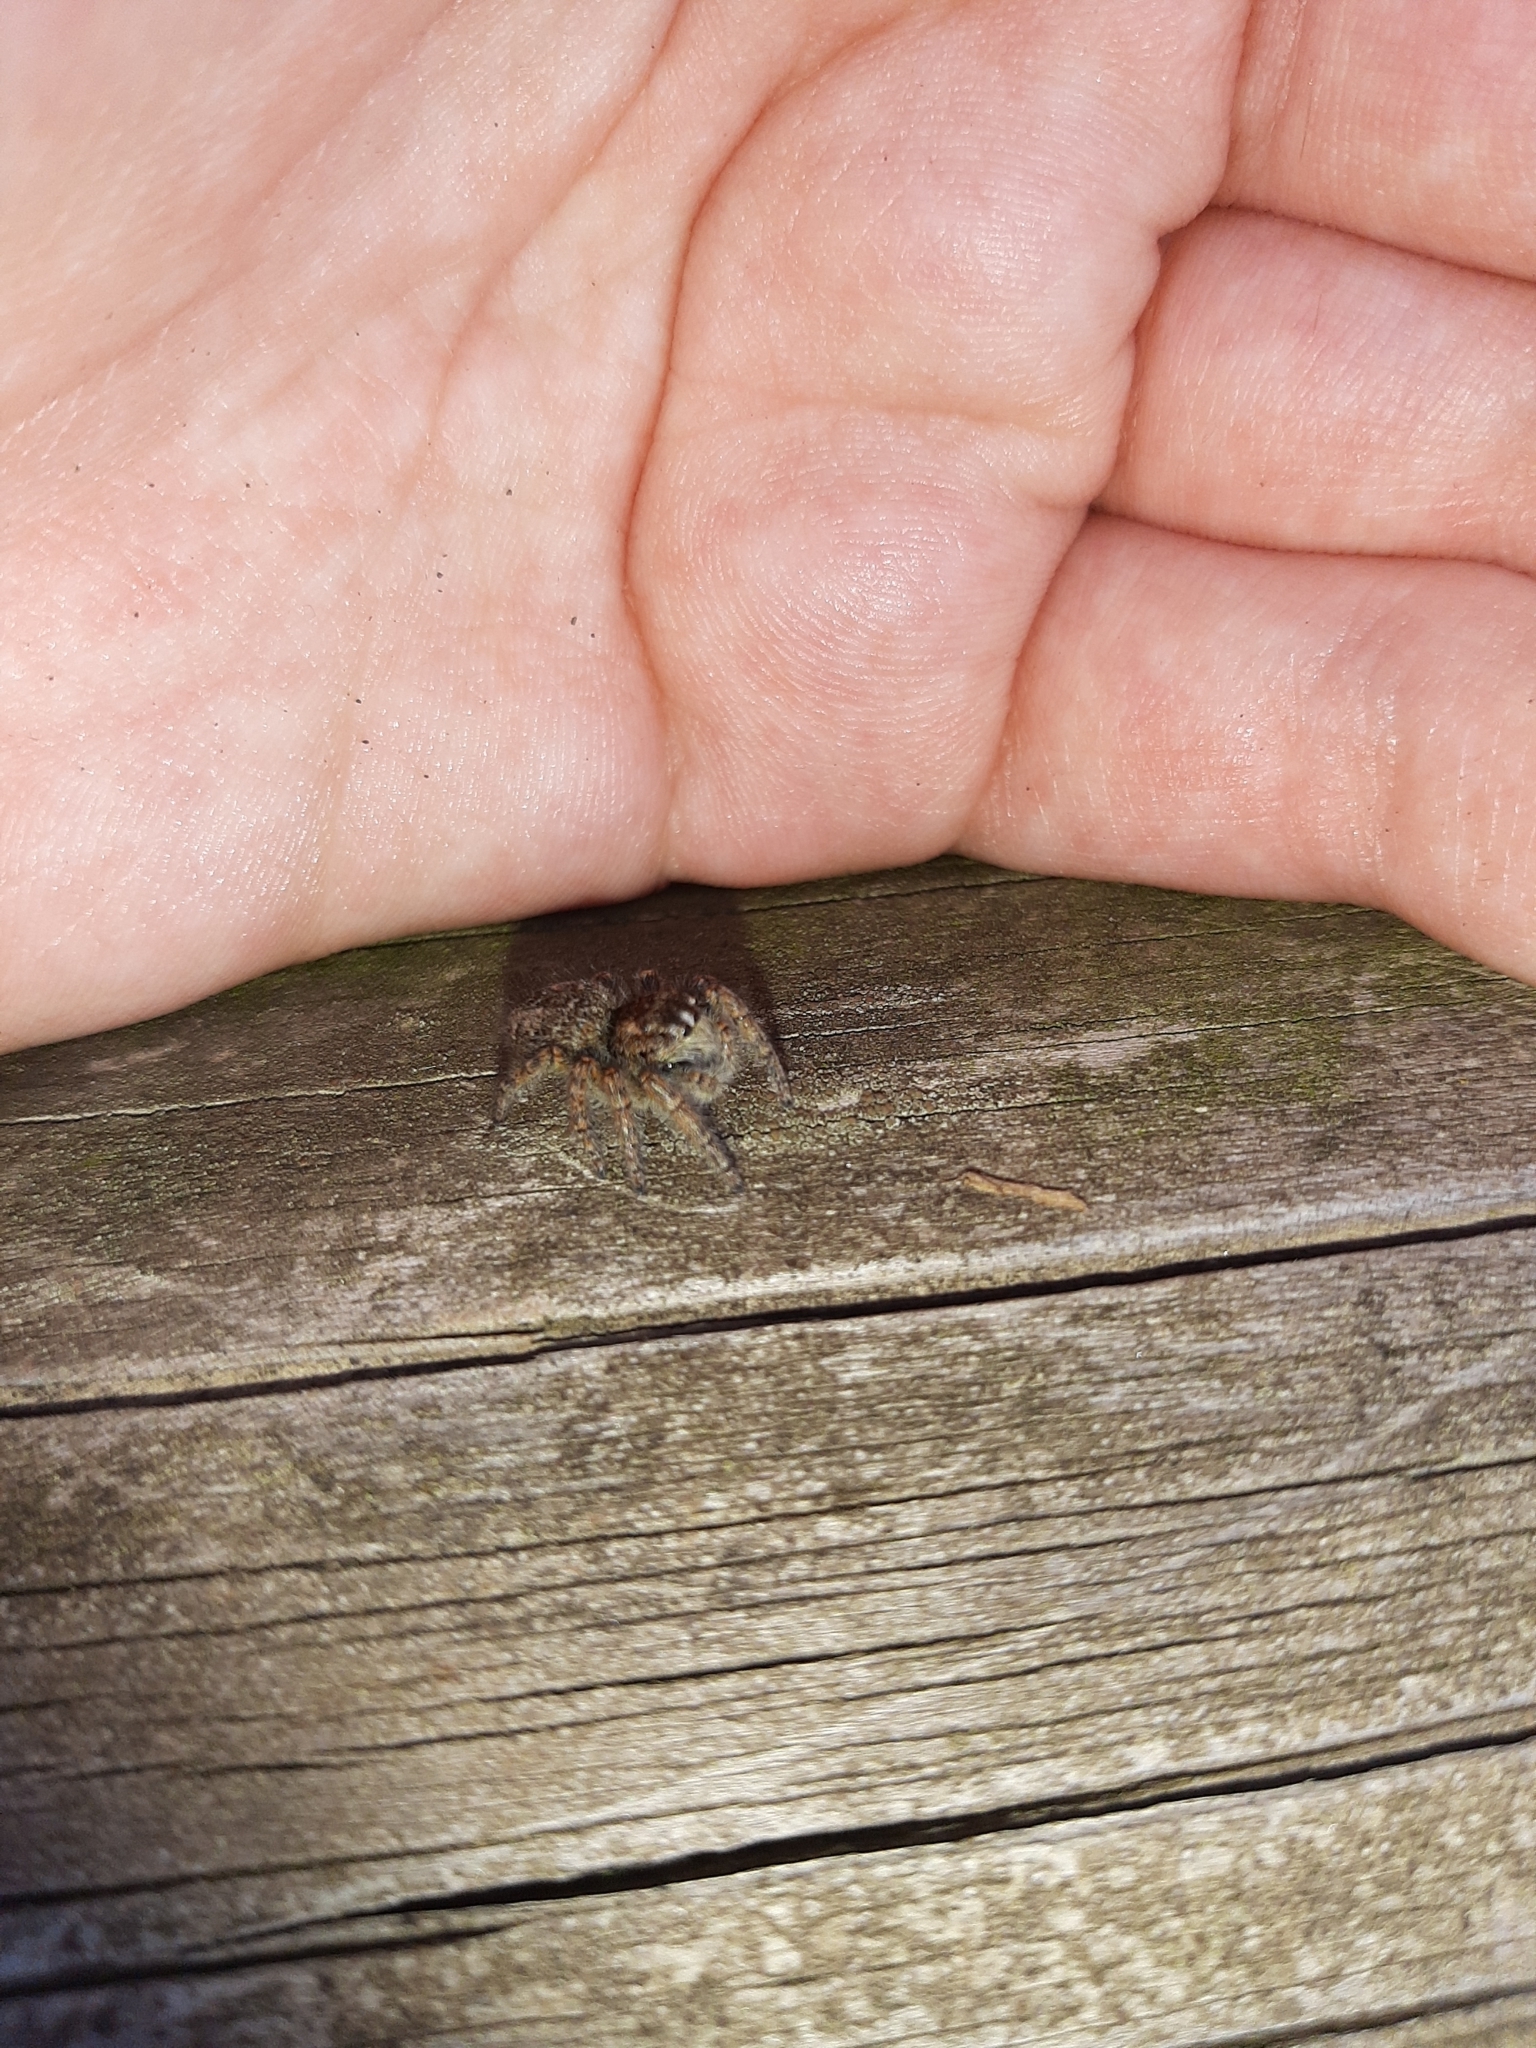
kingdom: Animalia
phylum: Arthropoda
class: Arachnida
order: Araneae
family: Salticidae
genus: Philaeus
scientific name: Philaeus chrysops
